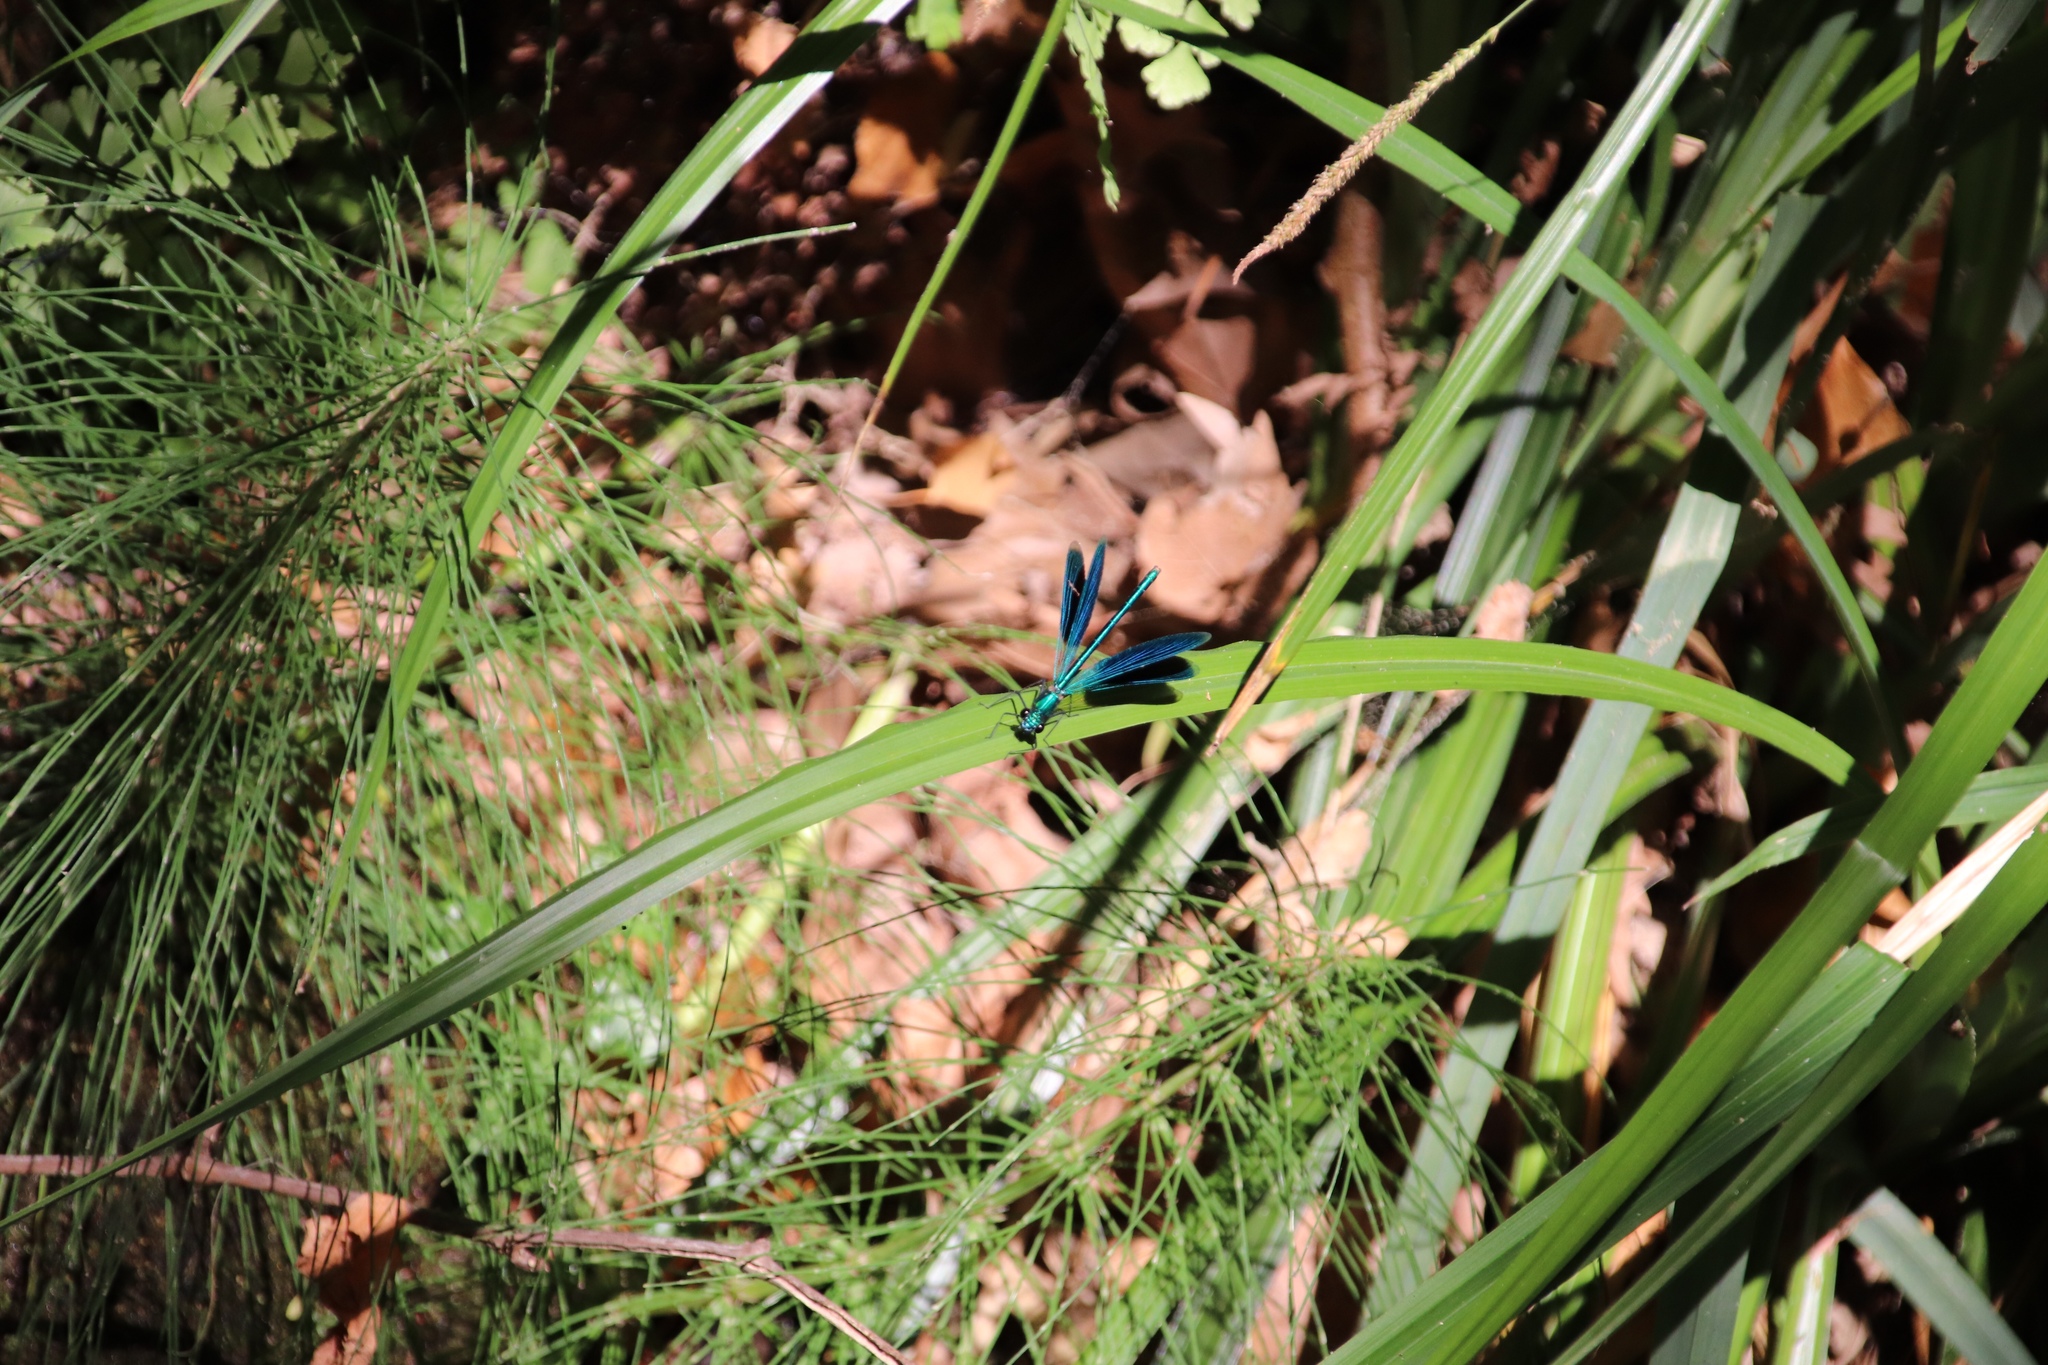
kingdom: Animalia
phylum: Arthropoda
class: Insecta
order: Odonata
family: Calopterygidae
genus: Calopteryx
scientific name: Calopteryx splendens
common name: Banded demoiselle
